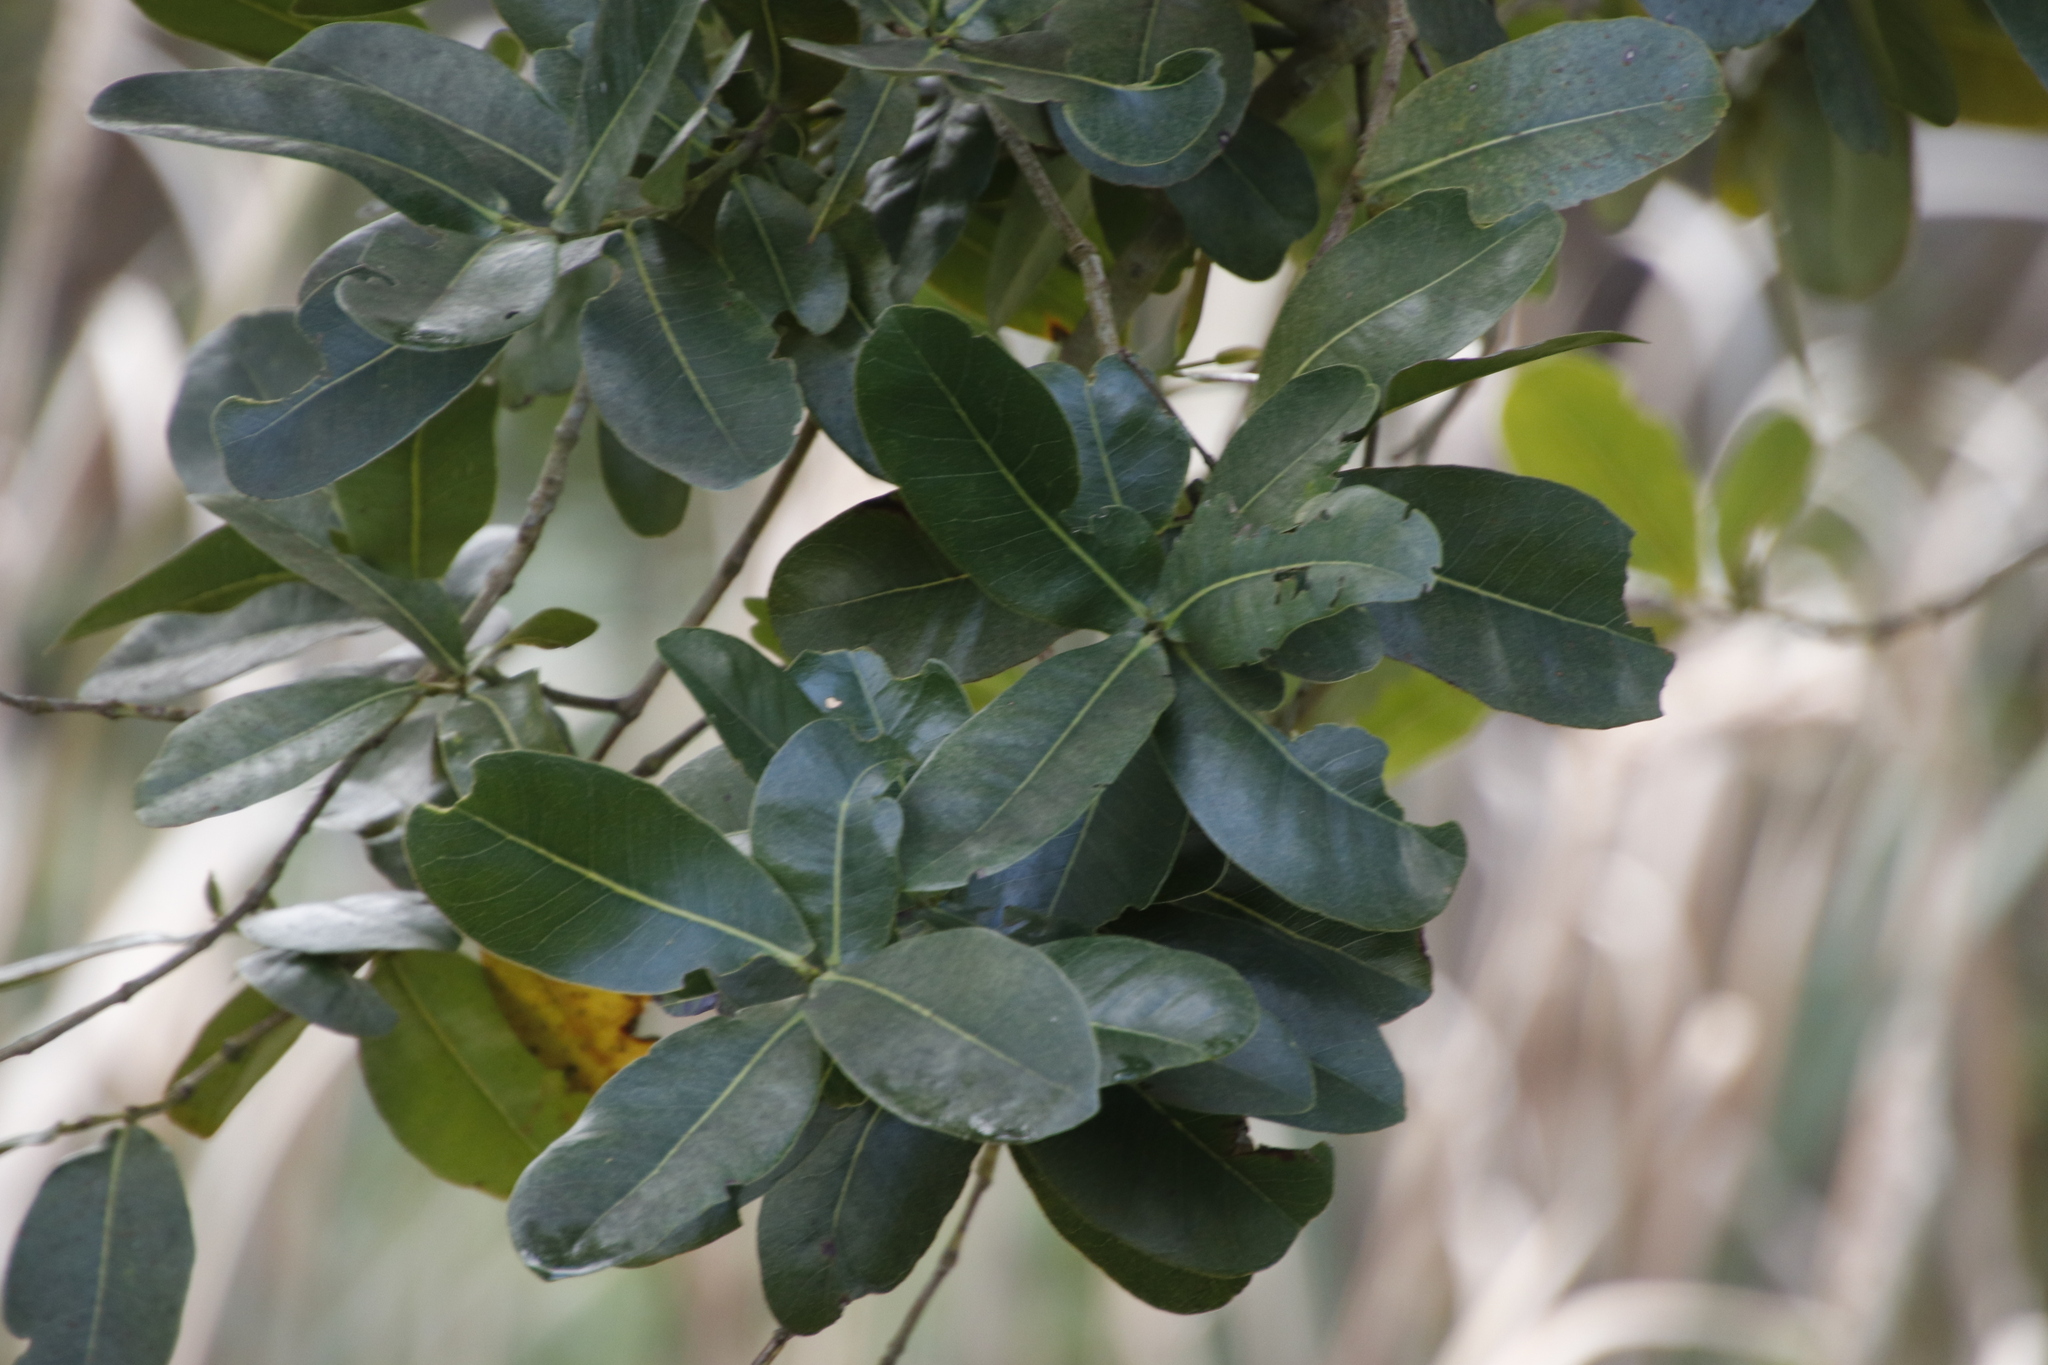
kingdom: Plantae
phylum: Tracheophyta
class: Magnoliopsida
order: Myrtales
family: Myrtaceae
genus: Syzygium
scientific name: Syzygium cordatum
